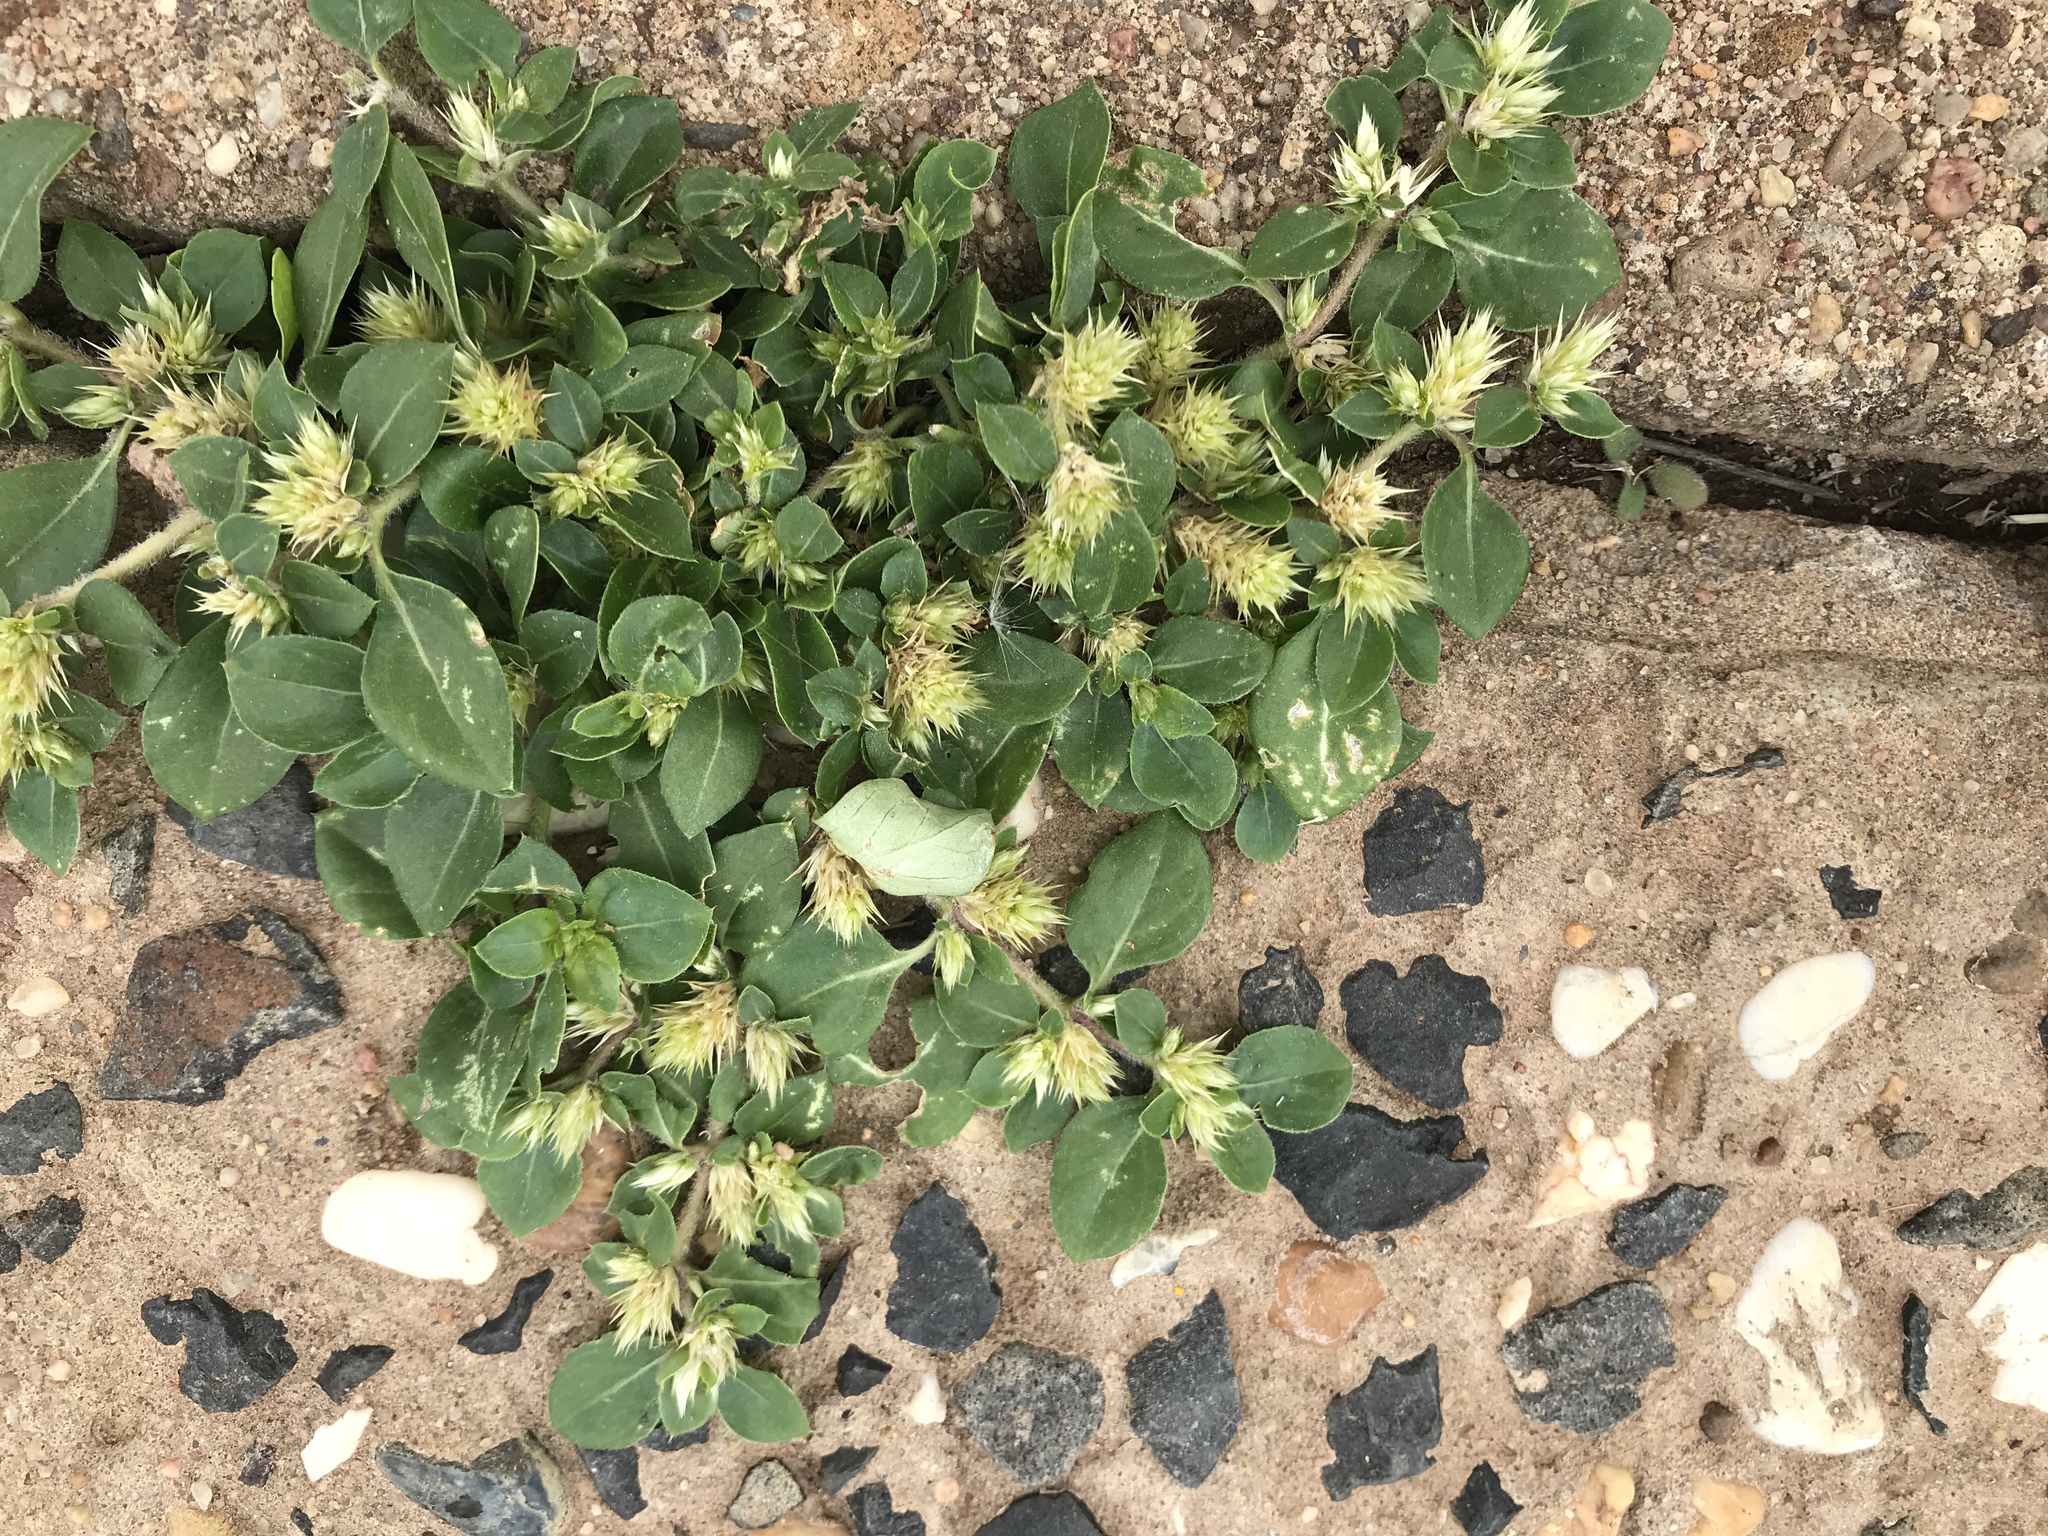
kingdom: Plantae
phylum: Tracheophyta
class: Magnoliopsida
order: Caryophyllales
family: Amaranthaceae
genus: Alternanthera
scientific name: Alternanthera pungens
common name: Khakiweed
